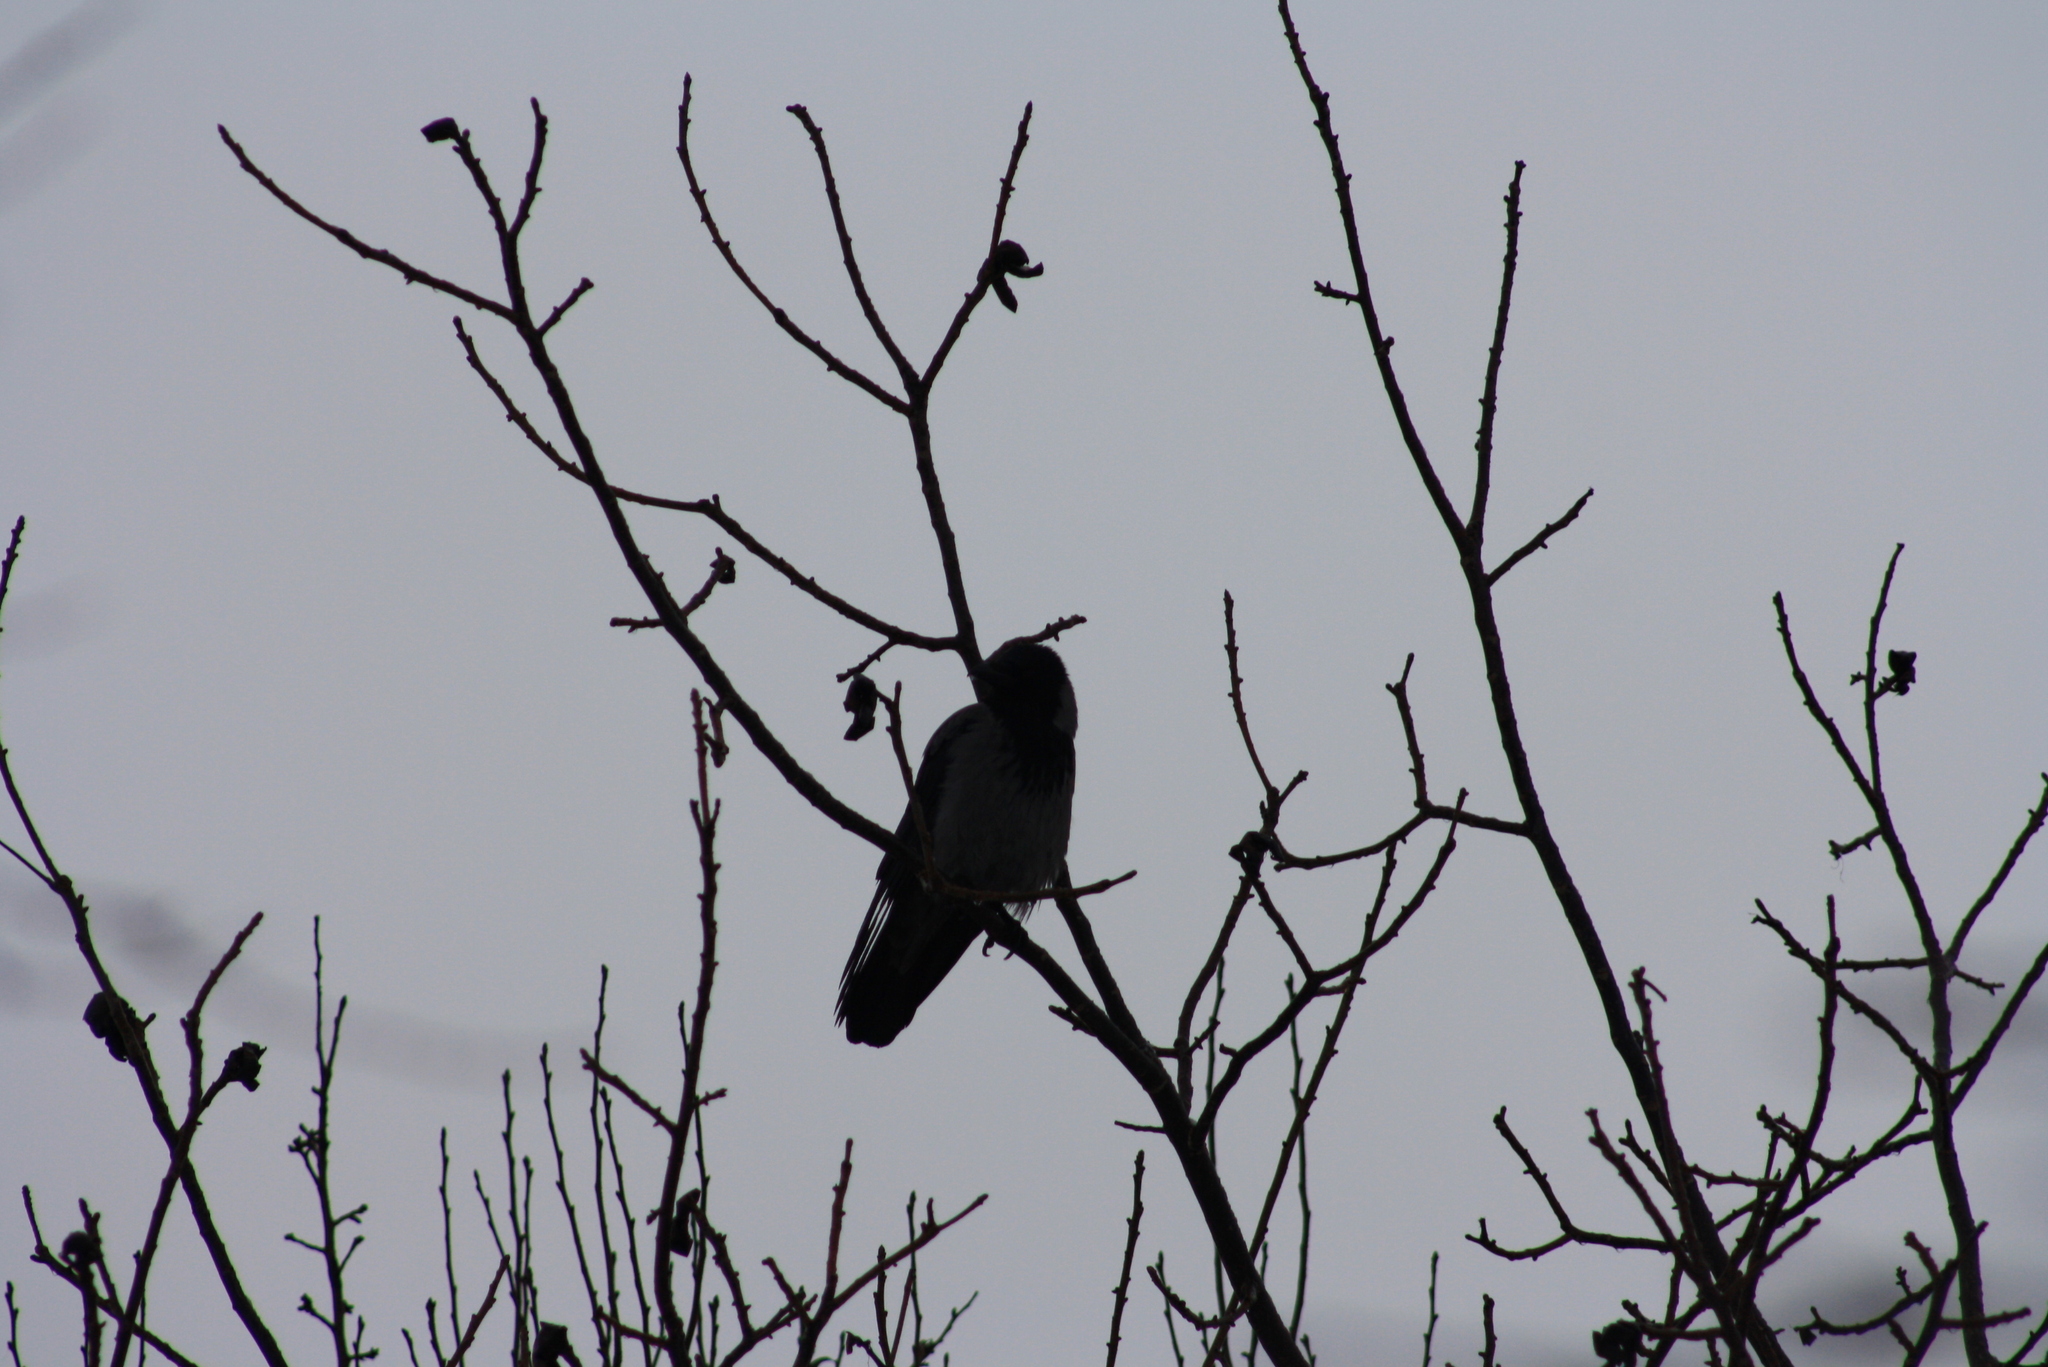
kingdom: Animalia
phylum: Chordata
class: Aves
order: Passeriformes
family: Corvidae
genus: Corvus
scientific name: Corvus cornix
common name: Hooded crow
